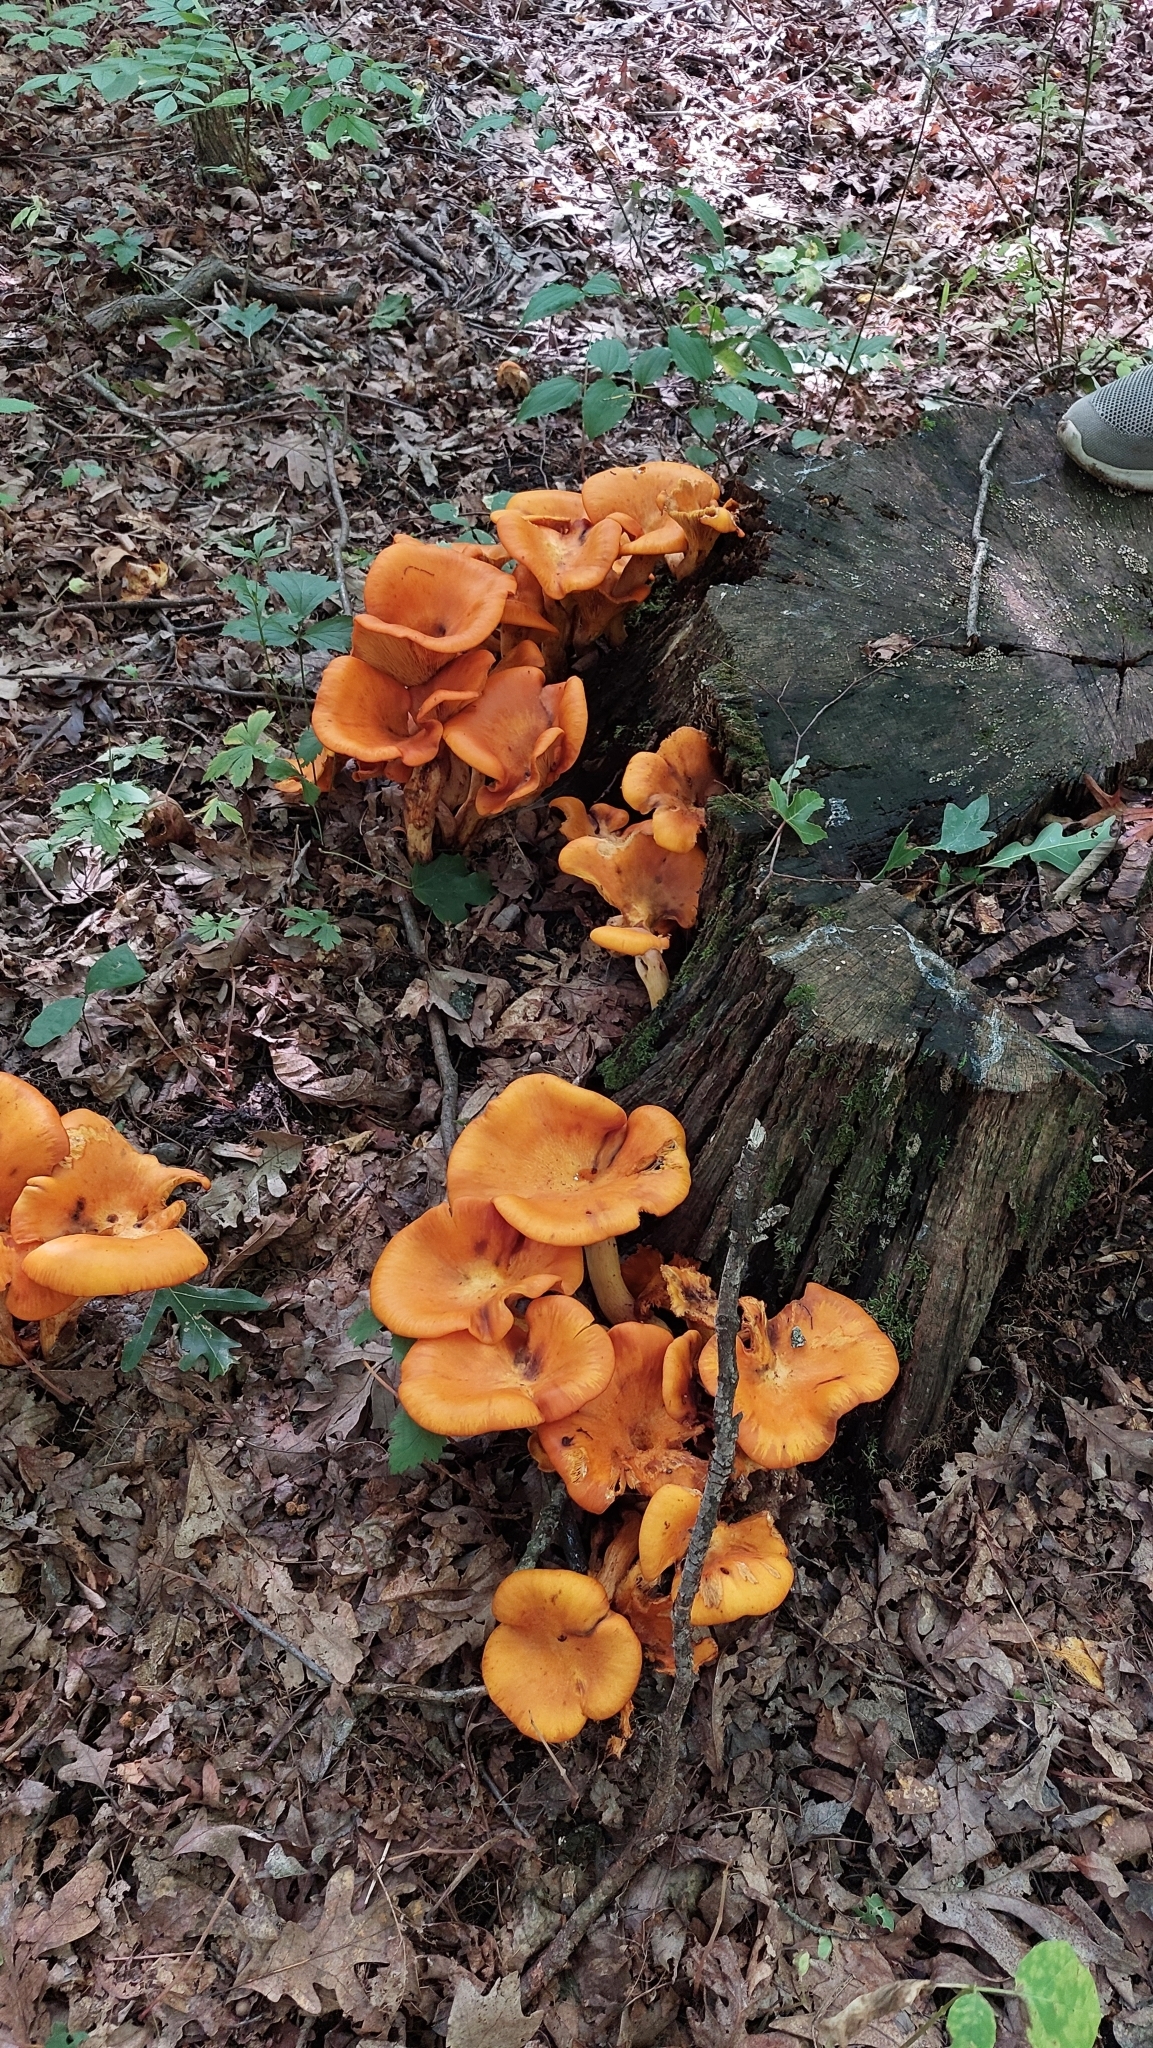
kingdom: Fungi
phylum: Basidiomycota
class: Agaricomycetes
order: Agaricales
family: Omphalotaceae
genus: Omphalotus
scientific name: Omphalotus illudens
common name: Jack o lantern
